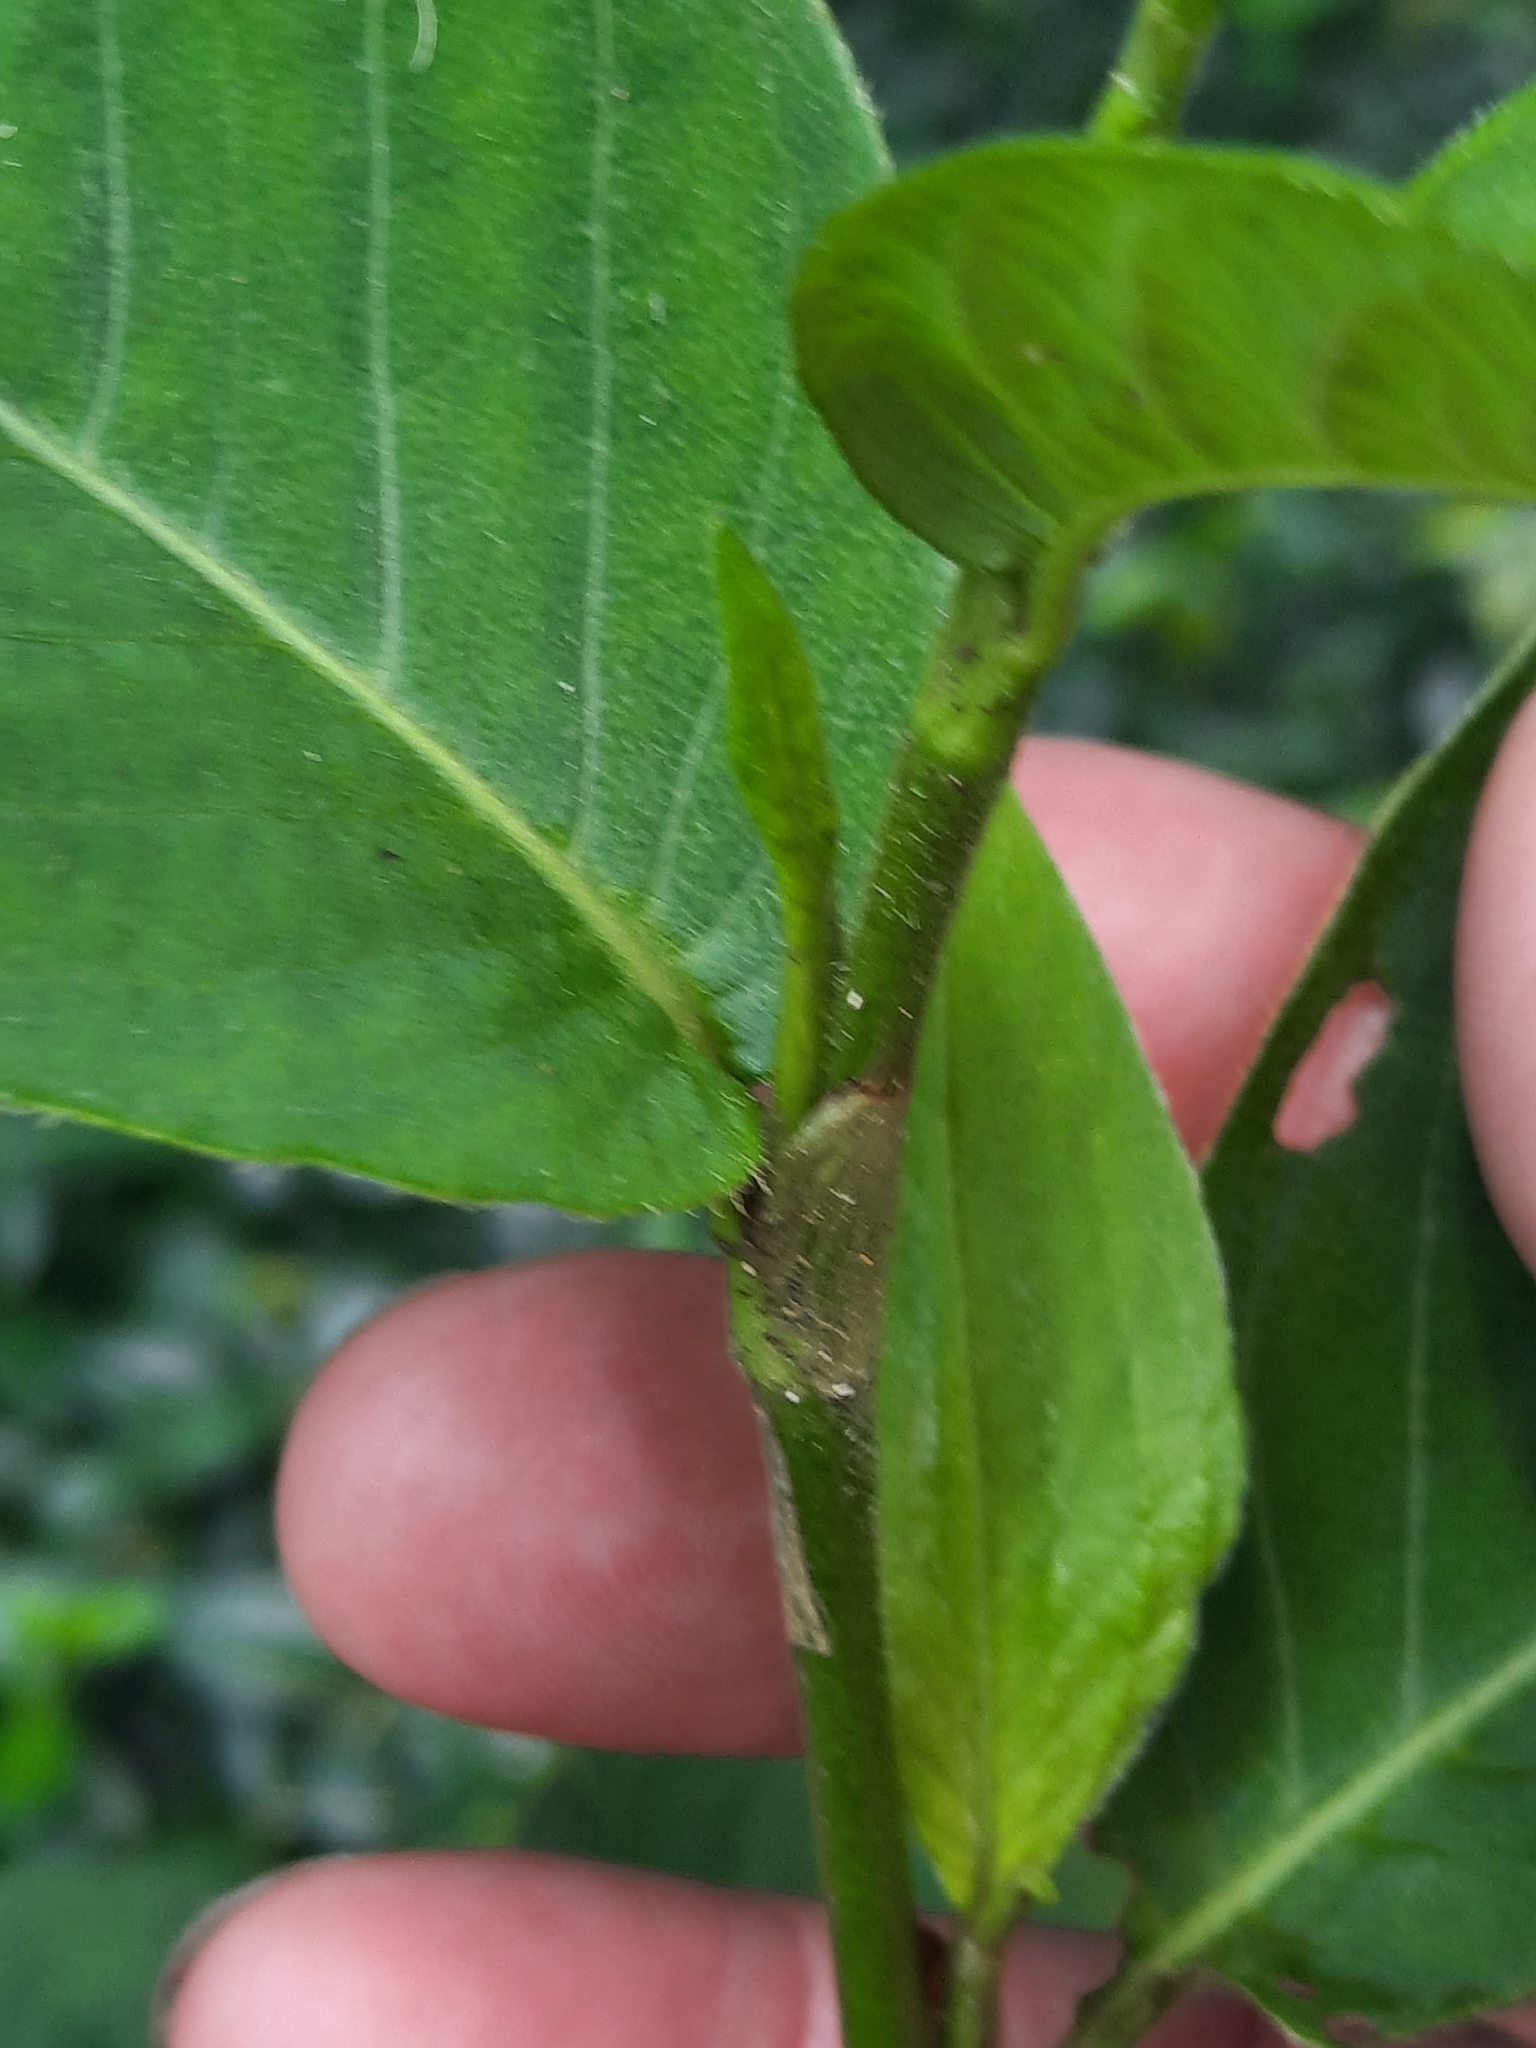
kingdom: Plantae
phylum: Tracheophyta
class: Magnoliopsida
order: Caryophyllales
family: Polygonaceae
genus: Persicaria
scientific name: Persicaria virginiana
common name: Jumpseed
